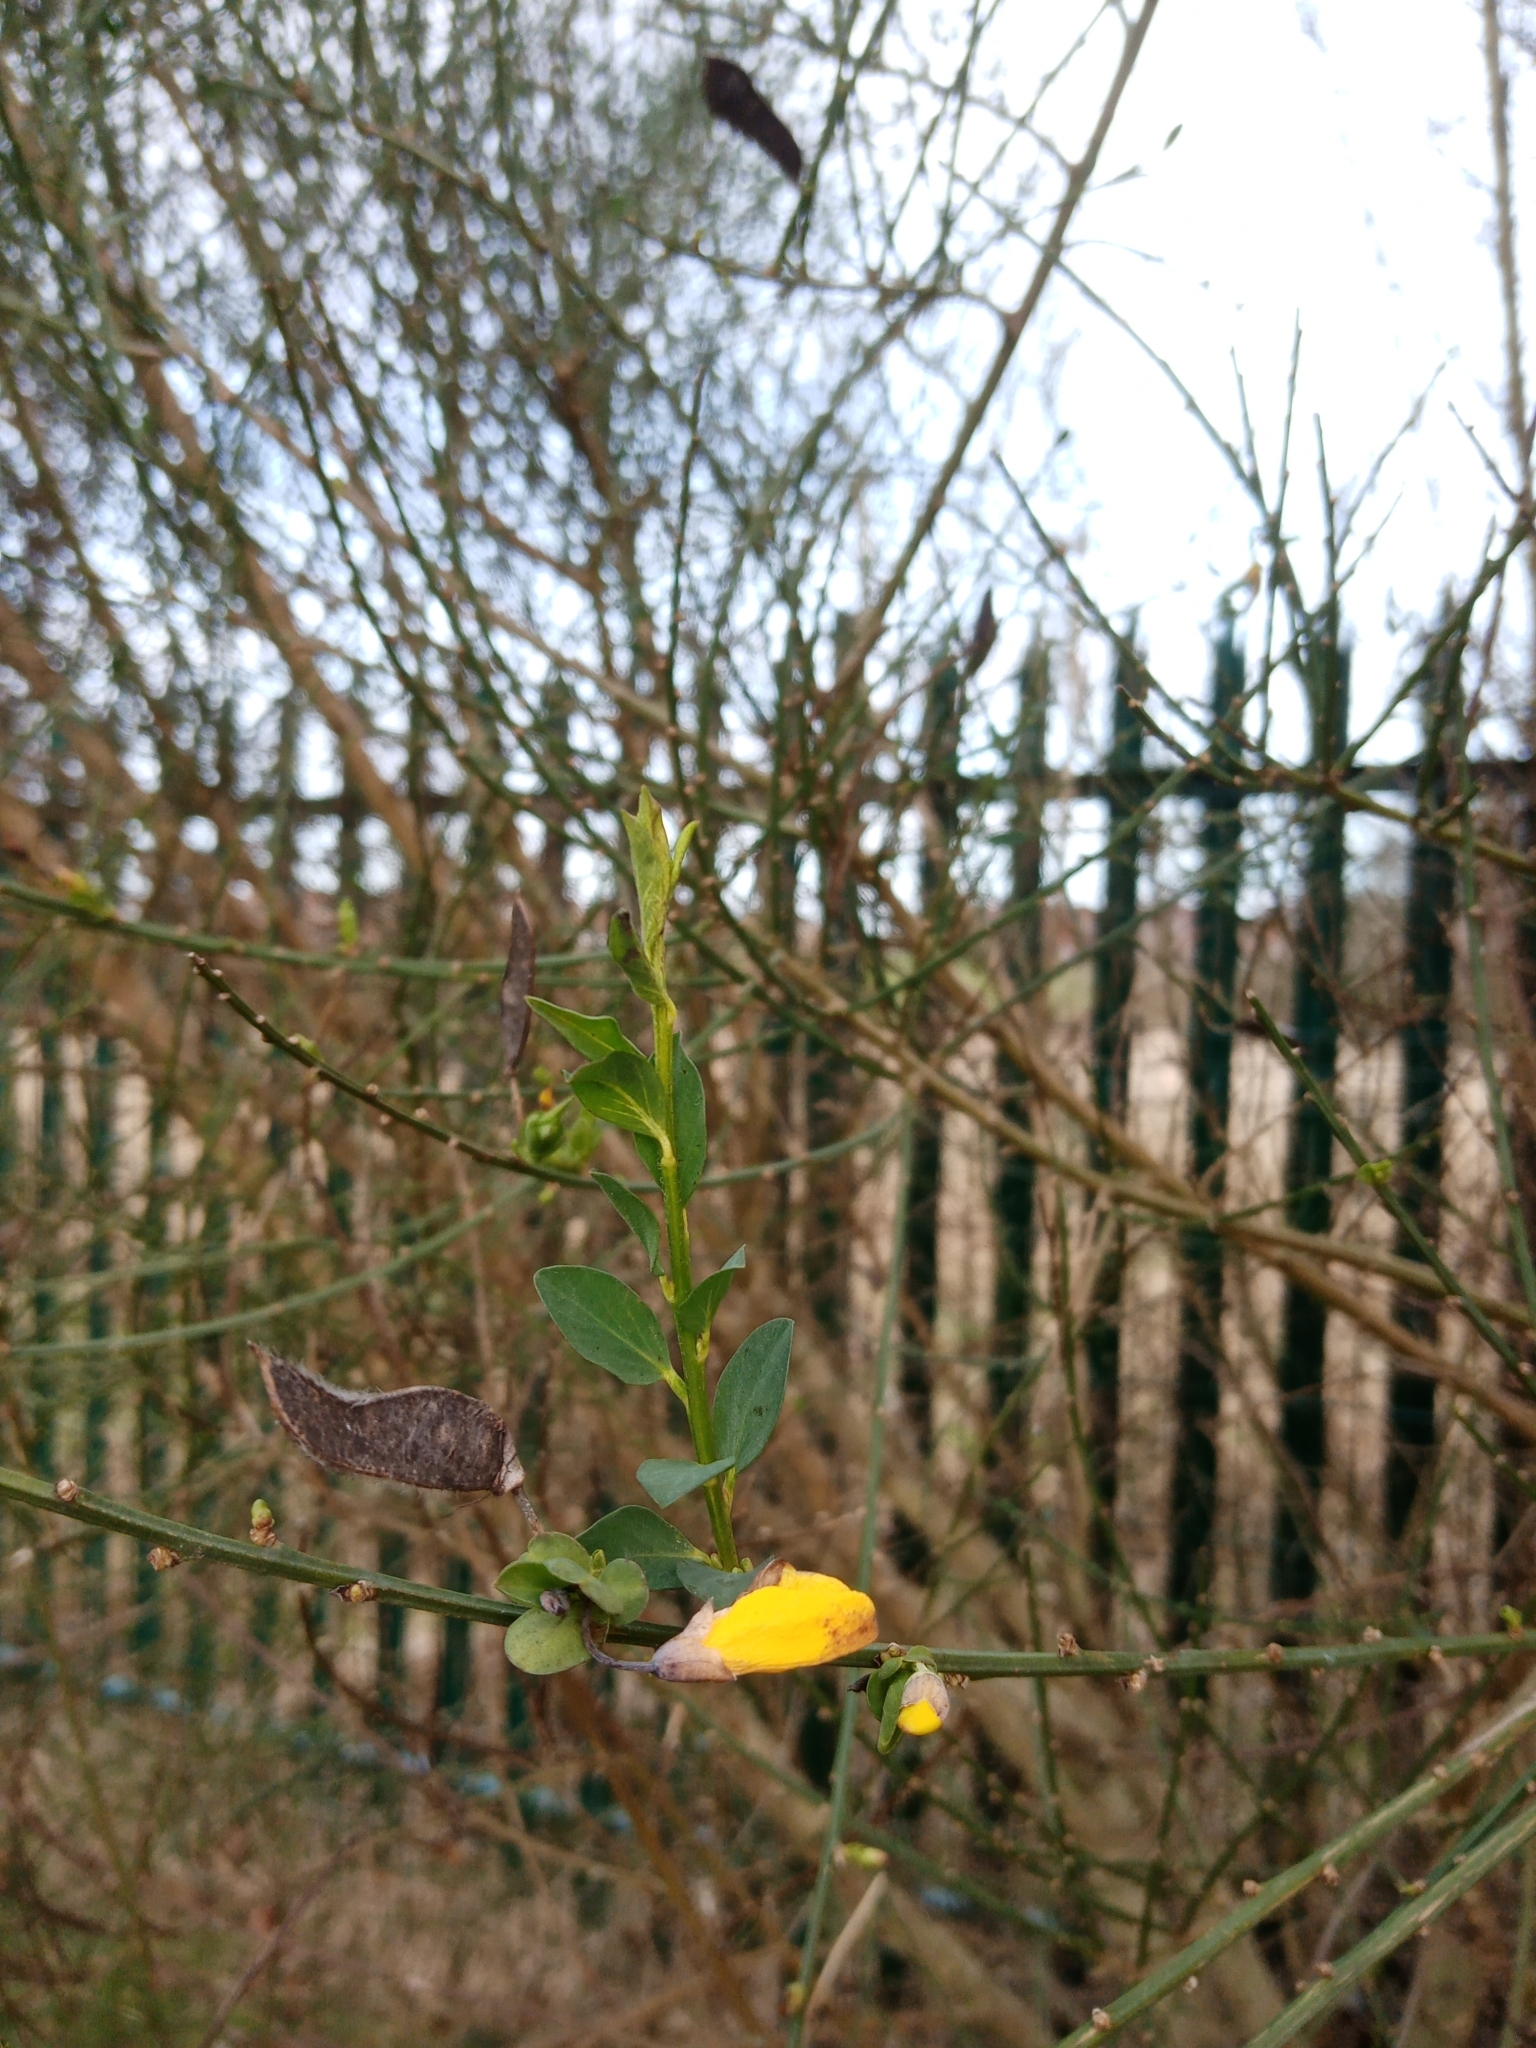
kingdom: Plantae
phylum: Tracheophyta
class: Magnoliopsida
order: Fabales
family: Fabaceae
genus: Cytisus
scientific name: Cytisus scoparius
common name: Scotch broom
